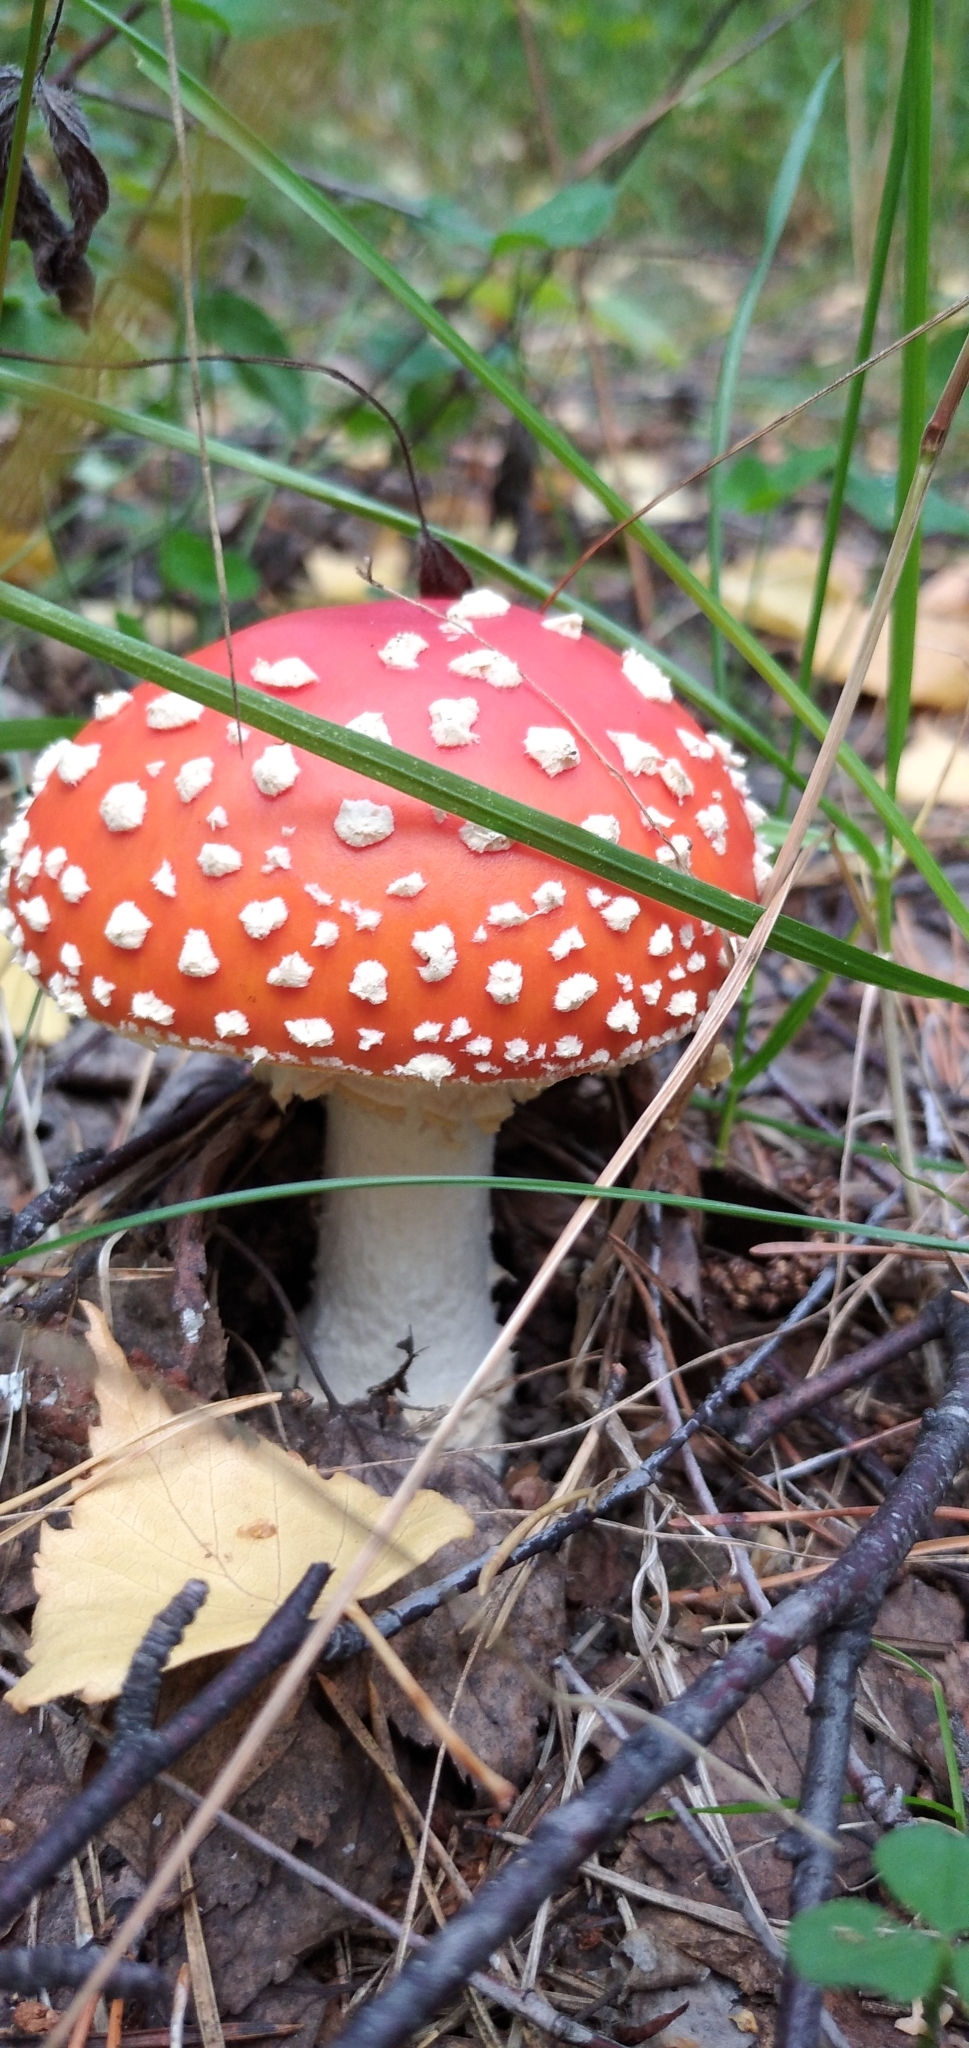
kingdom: Fungi
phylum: Basidiomycota
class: Agaricomycetes
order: Agaricales
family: Amanitaceae
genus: Amanita
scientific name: Amanita muscaria
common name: Fly agaric
